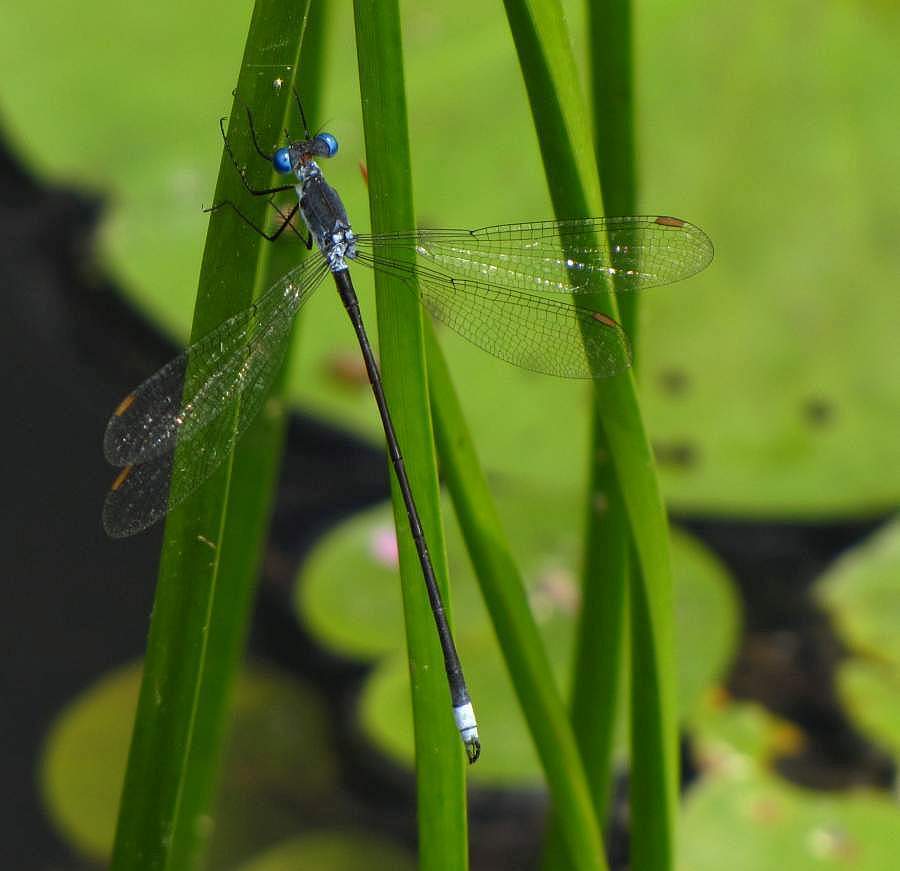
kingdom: Animalia
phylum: Arthropoda
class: Insecta
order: Odonata
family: Lestidae
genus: Lestes
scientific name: Lestes vigilax
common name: Swamp spreadwing
